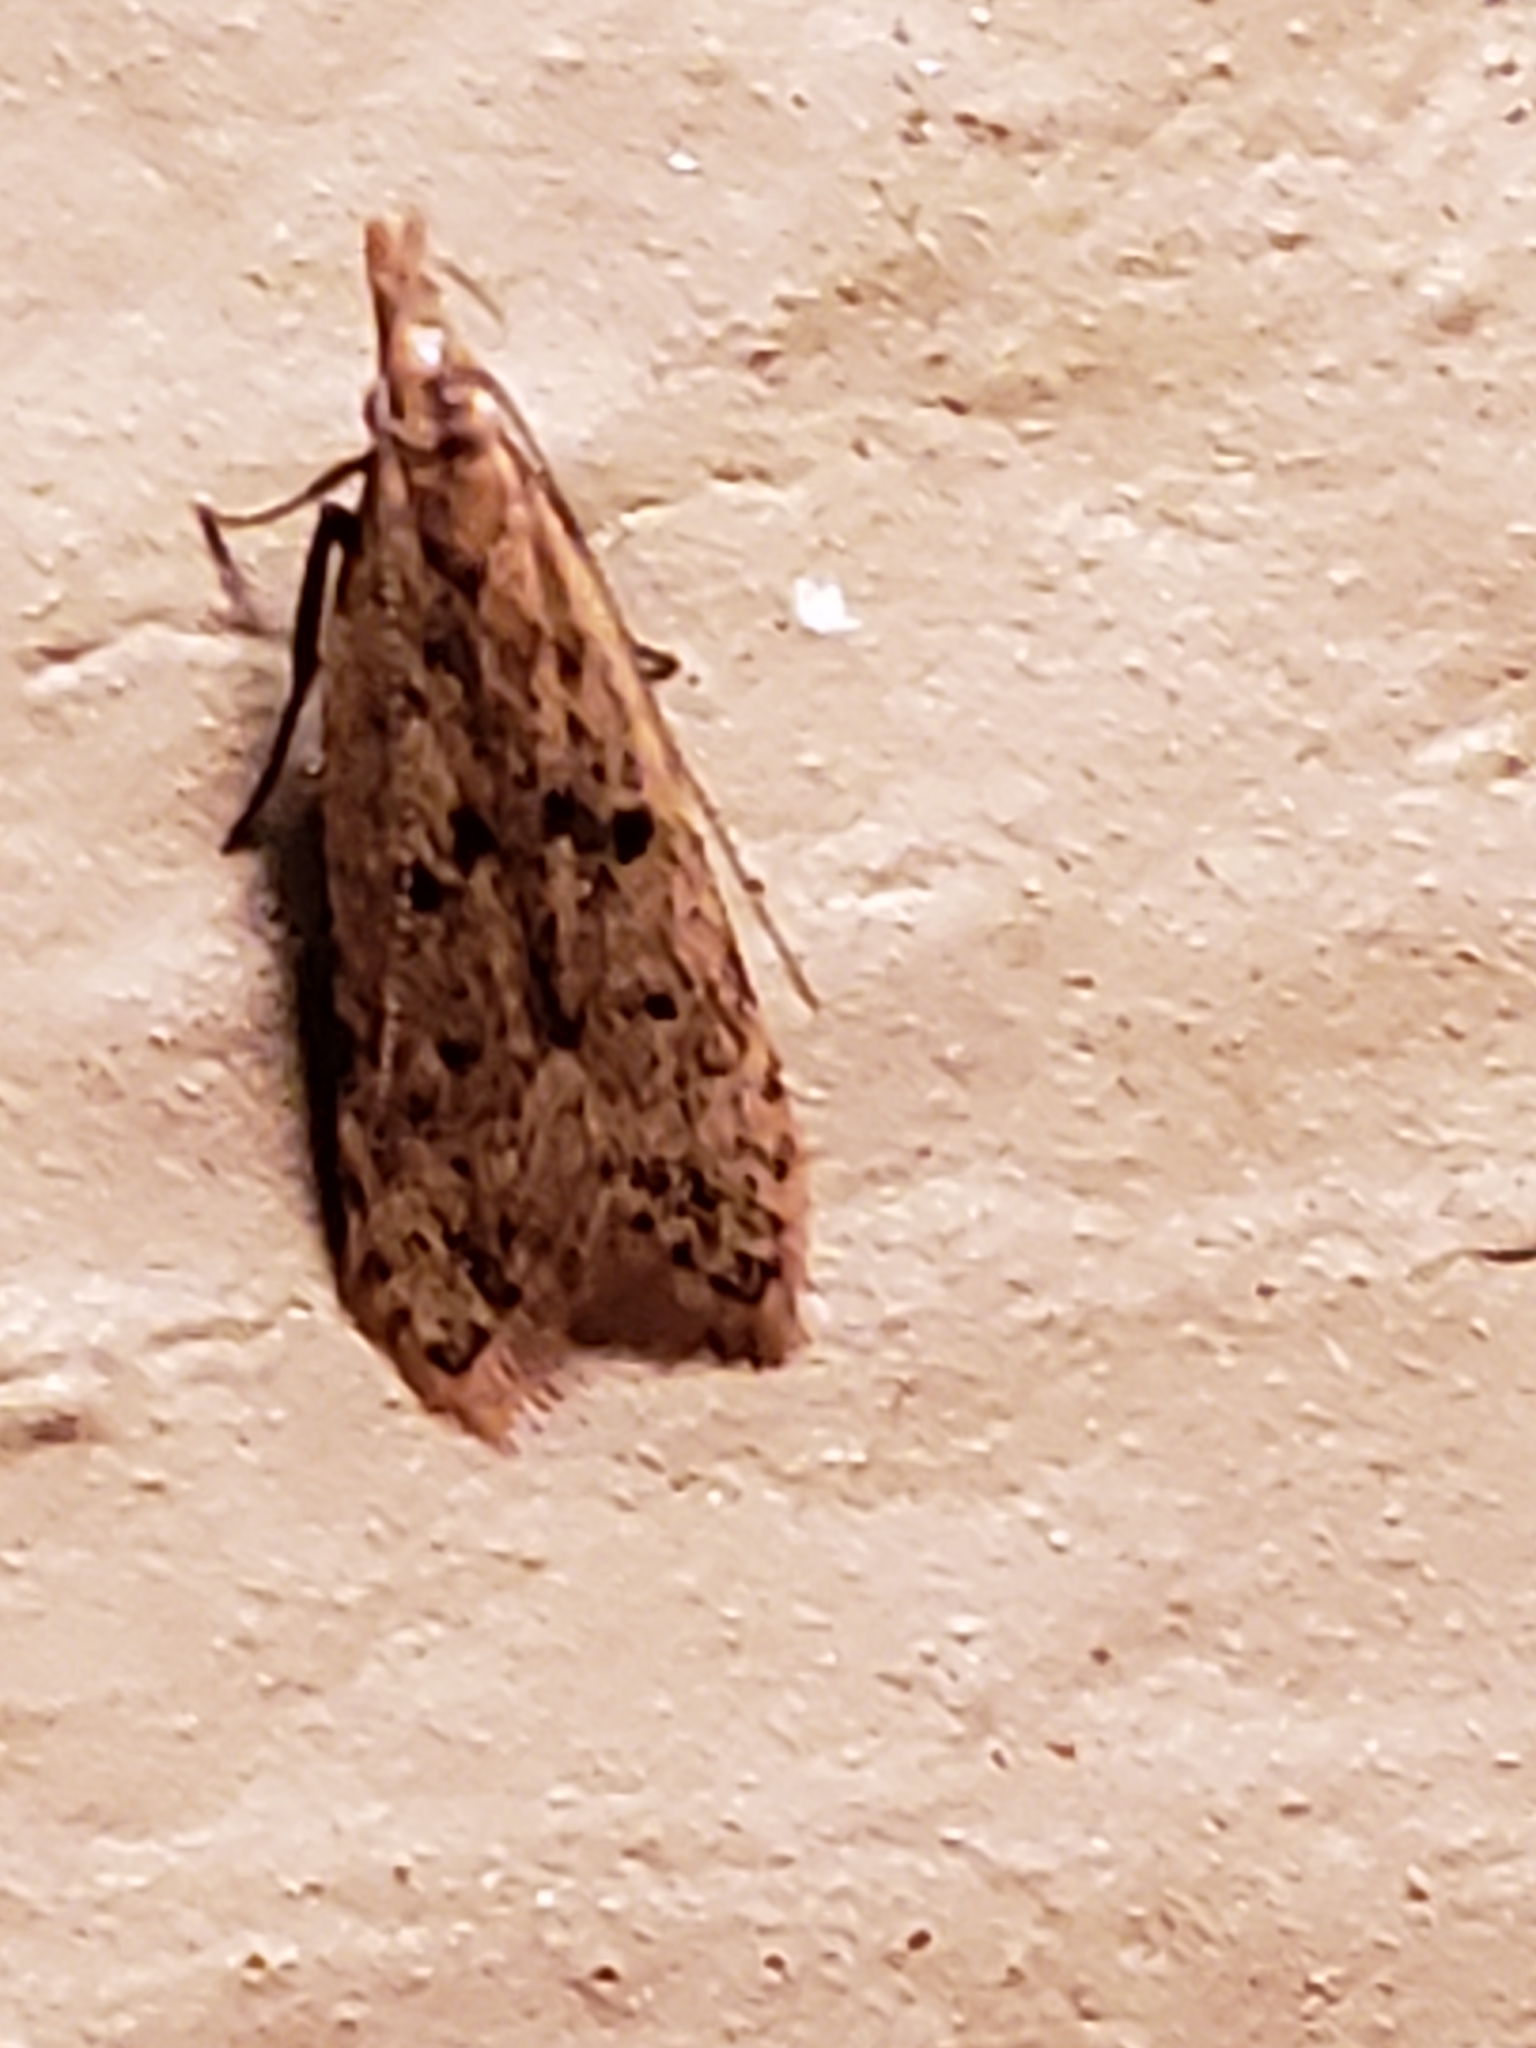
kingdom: Animalia
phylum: Arthropoda
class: Insecta
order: Lepidoptera
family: Gelechiidae
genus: Dichomeris
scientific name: Dichomeris punctipennella
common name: Many-spotted dichomeris moth
